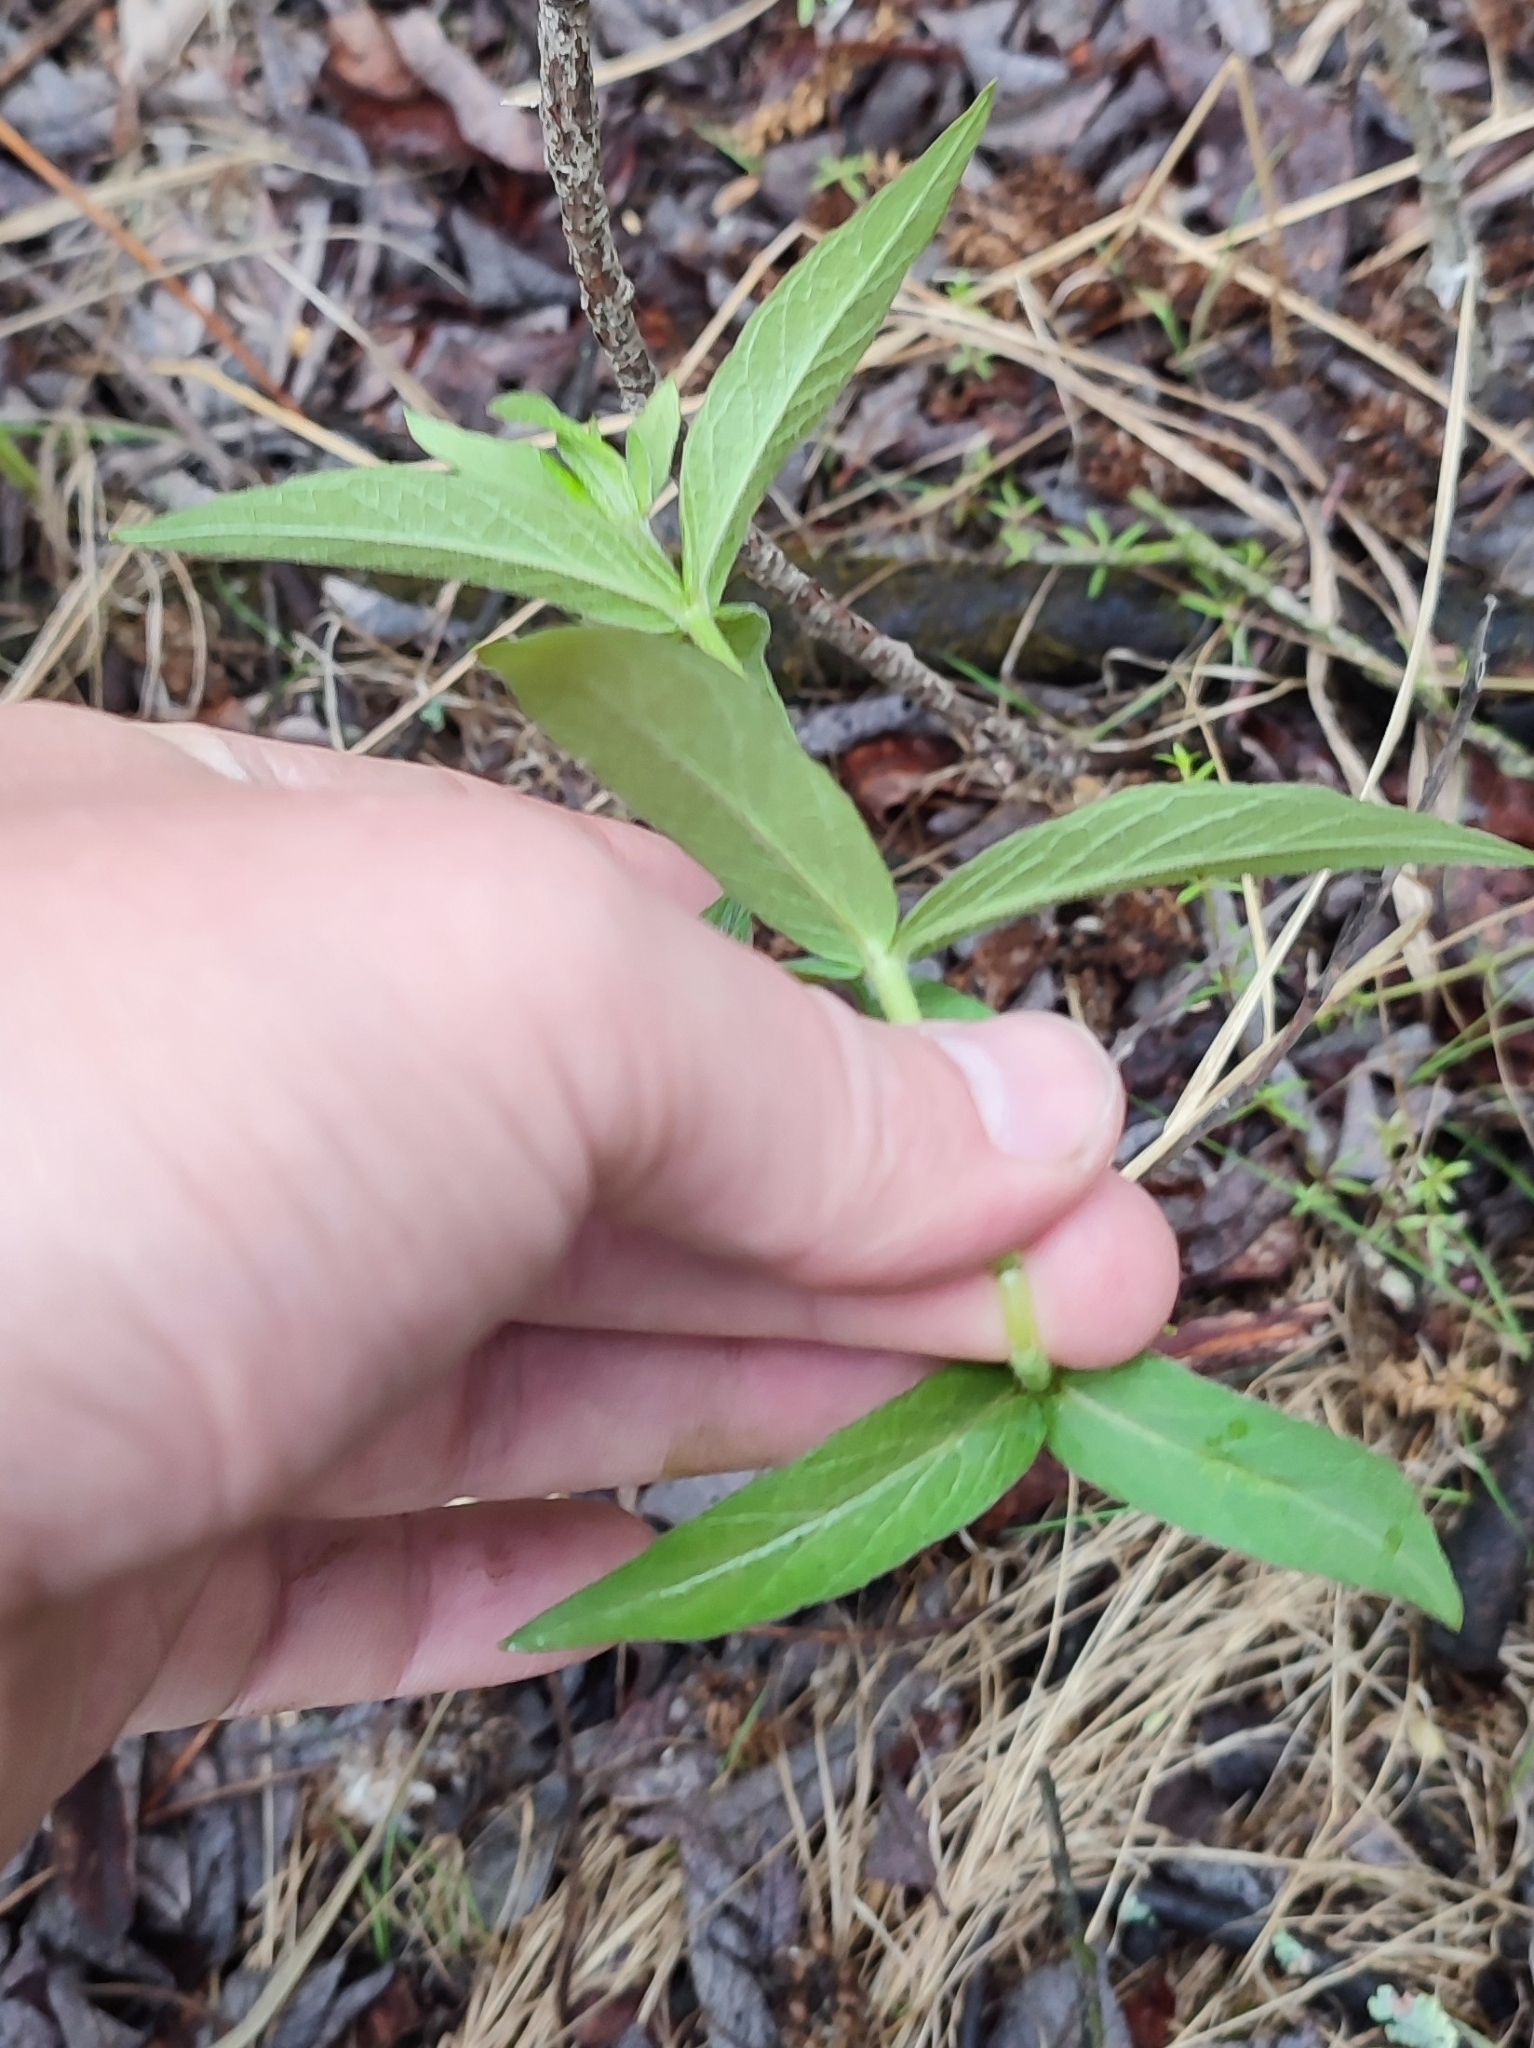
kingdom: Plantae
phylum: Tracheophyta
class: Magnoliopsida
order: Ericales
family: Primulaceae
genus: Lysimachia
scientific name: Lysimachia vulgaris
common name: Yellow loosestrife
